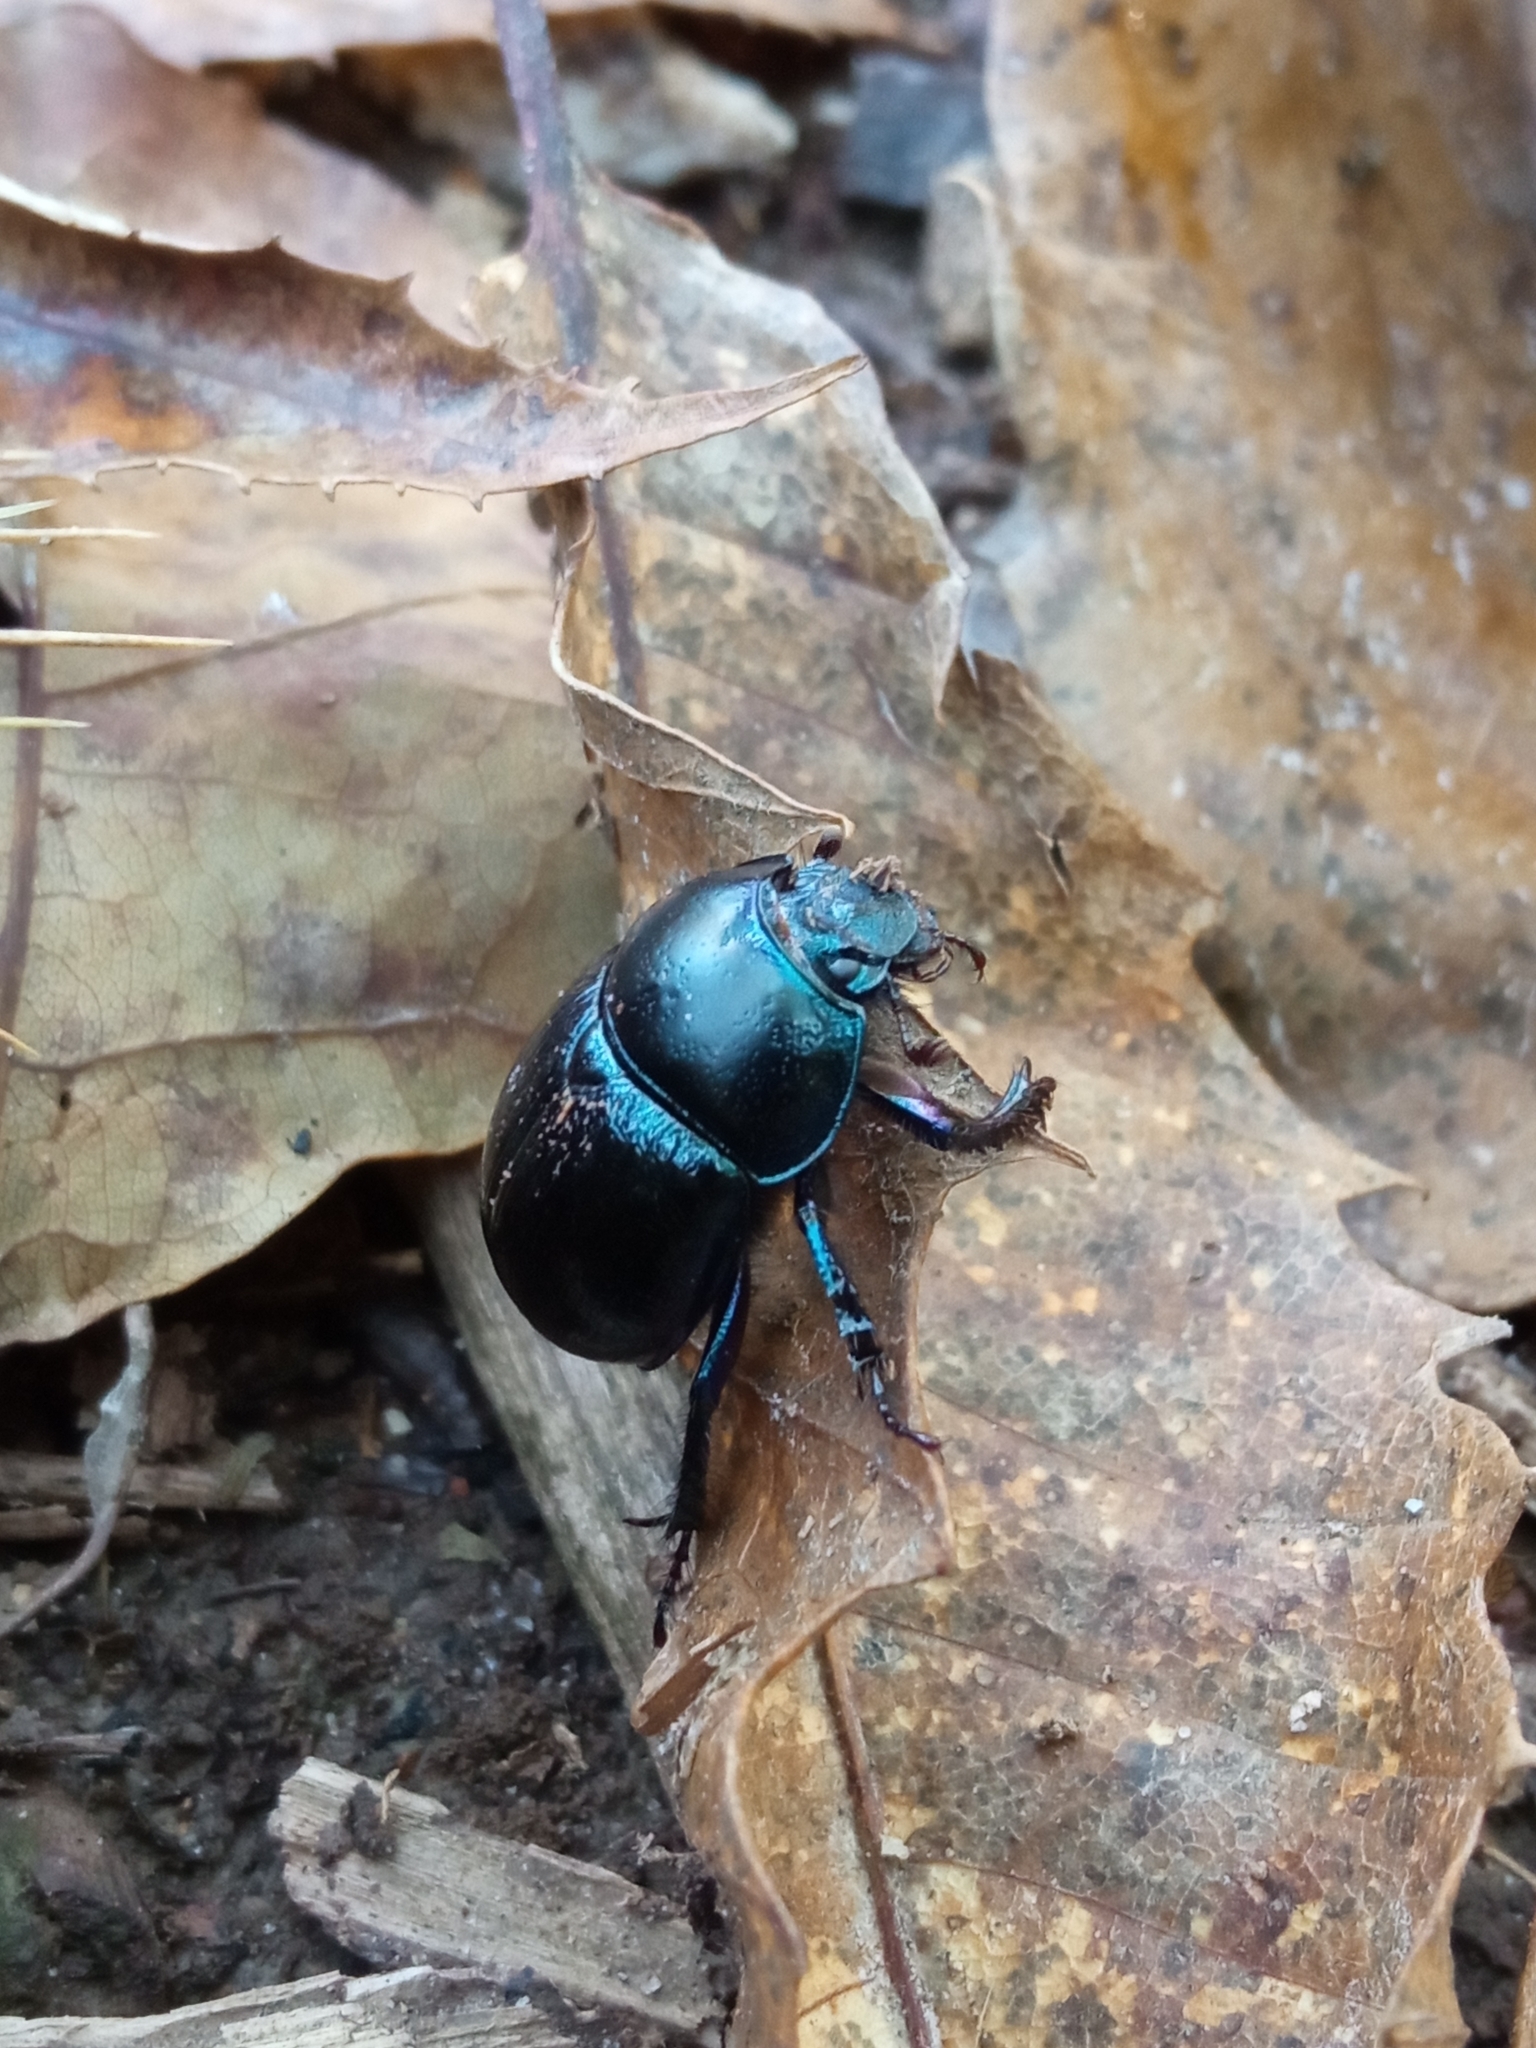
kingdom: Animalia
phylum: Arthropoda
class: Insecta
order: Coleoptera
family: Geotrupidae
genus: Anoplotrupes
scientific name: Anoplotrupes stercorosus
